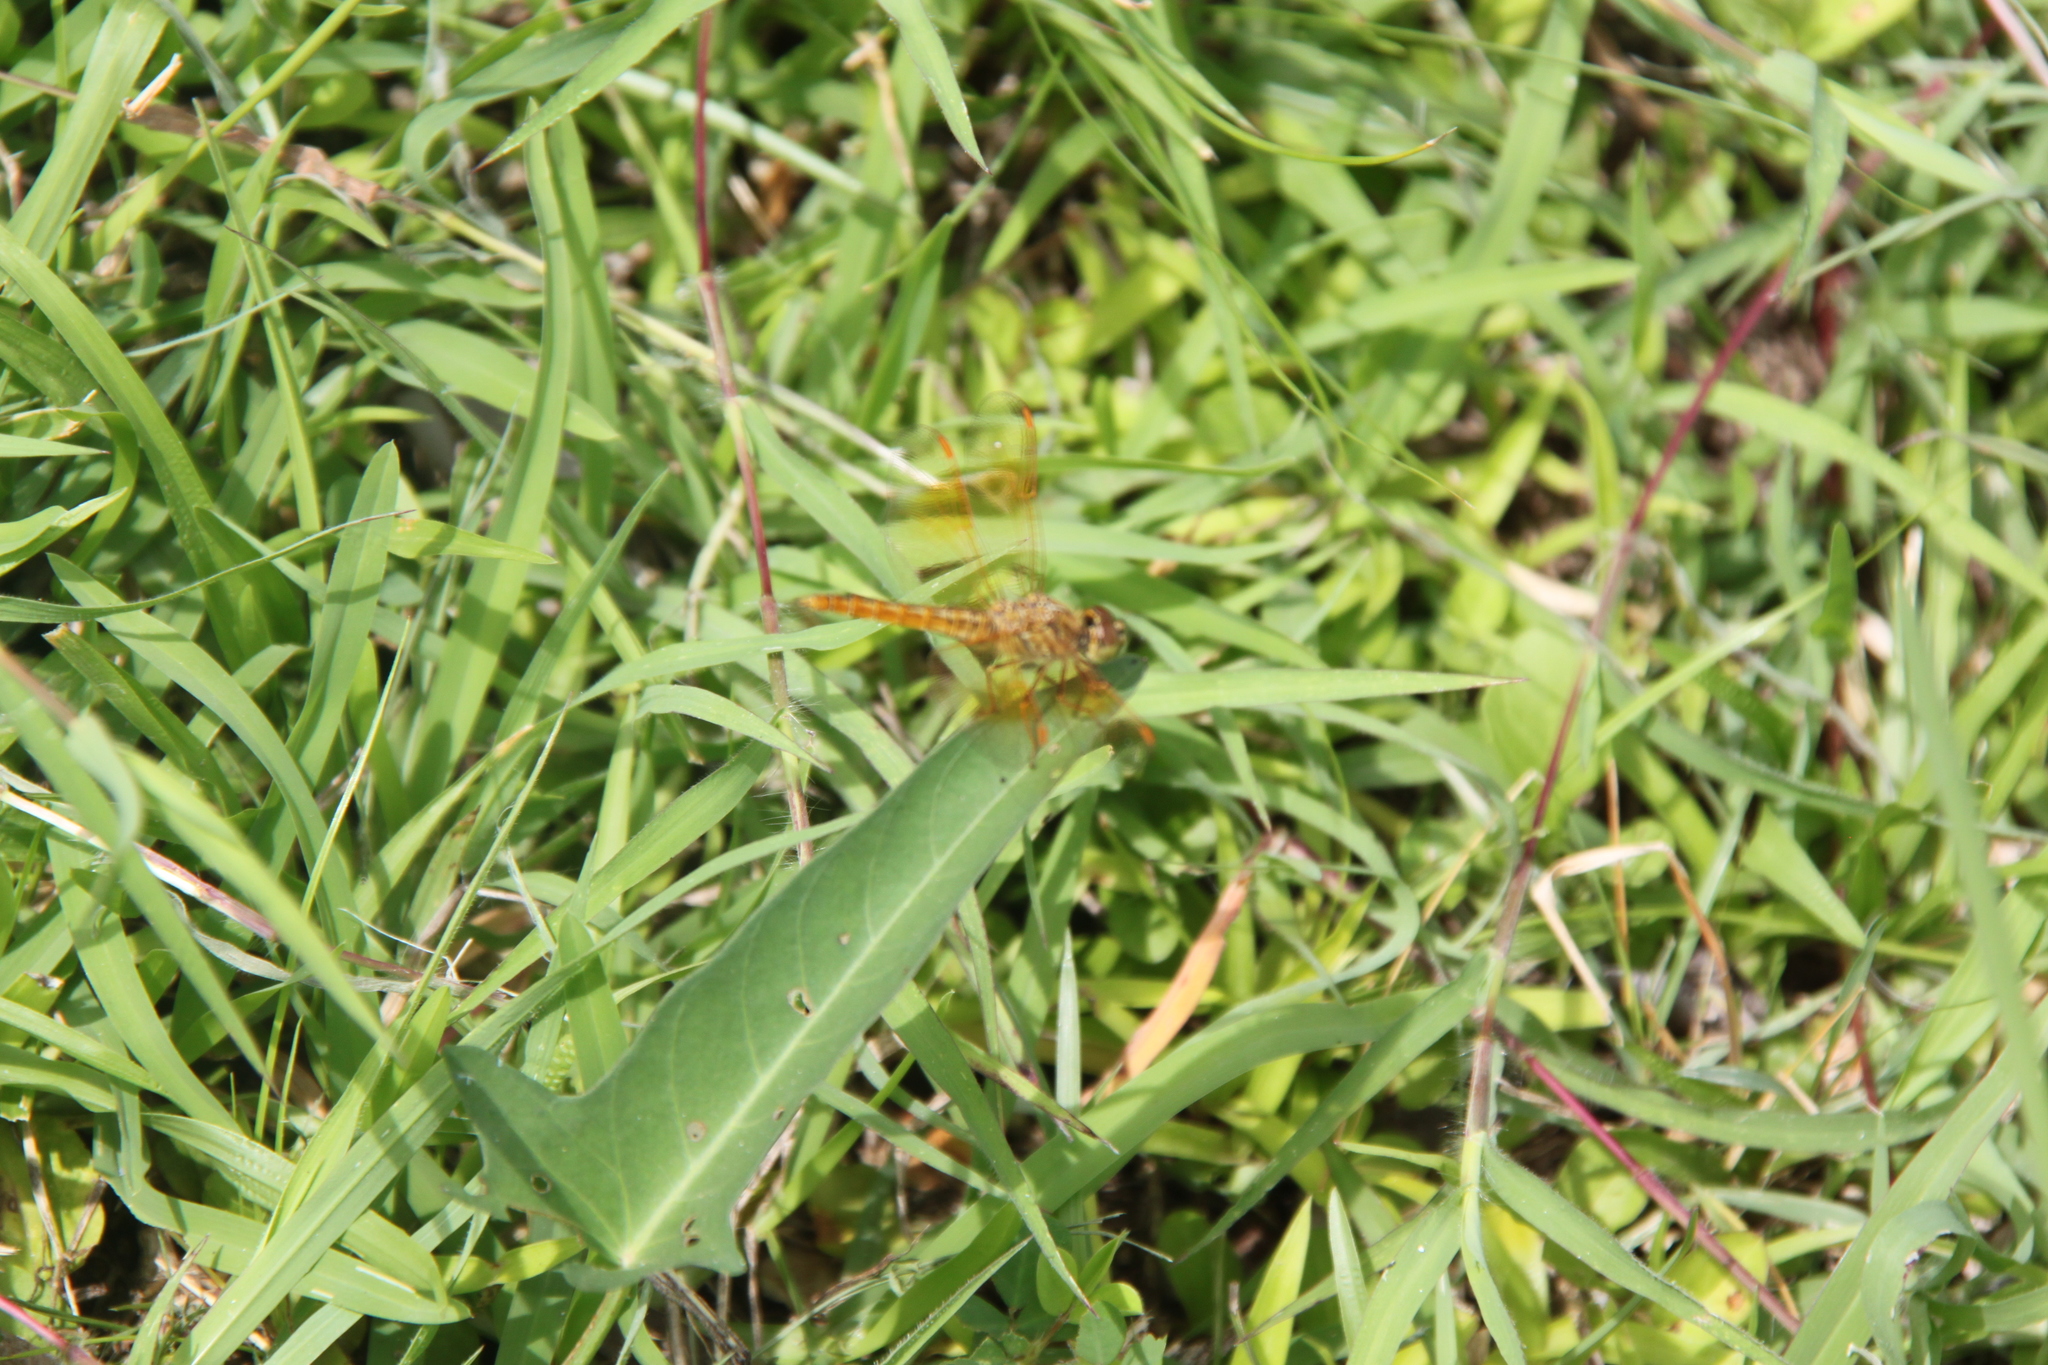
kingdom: Animalia
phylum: Arthropoda
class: Insecta
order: Odonata
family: Libellulidae
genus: Brachythemis
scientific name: Brachythemis contaminata
